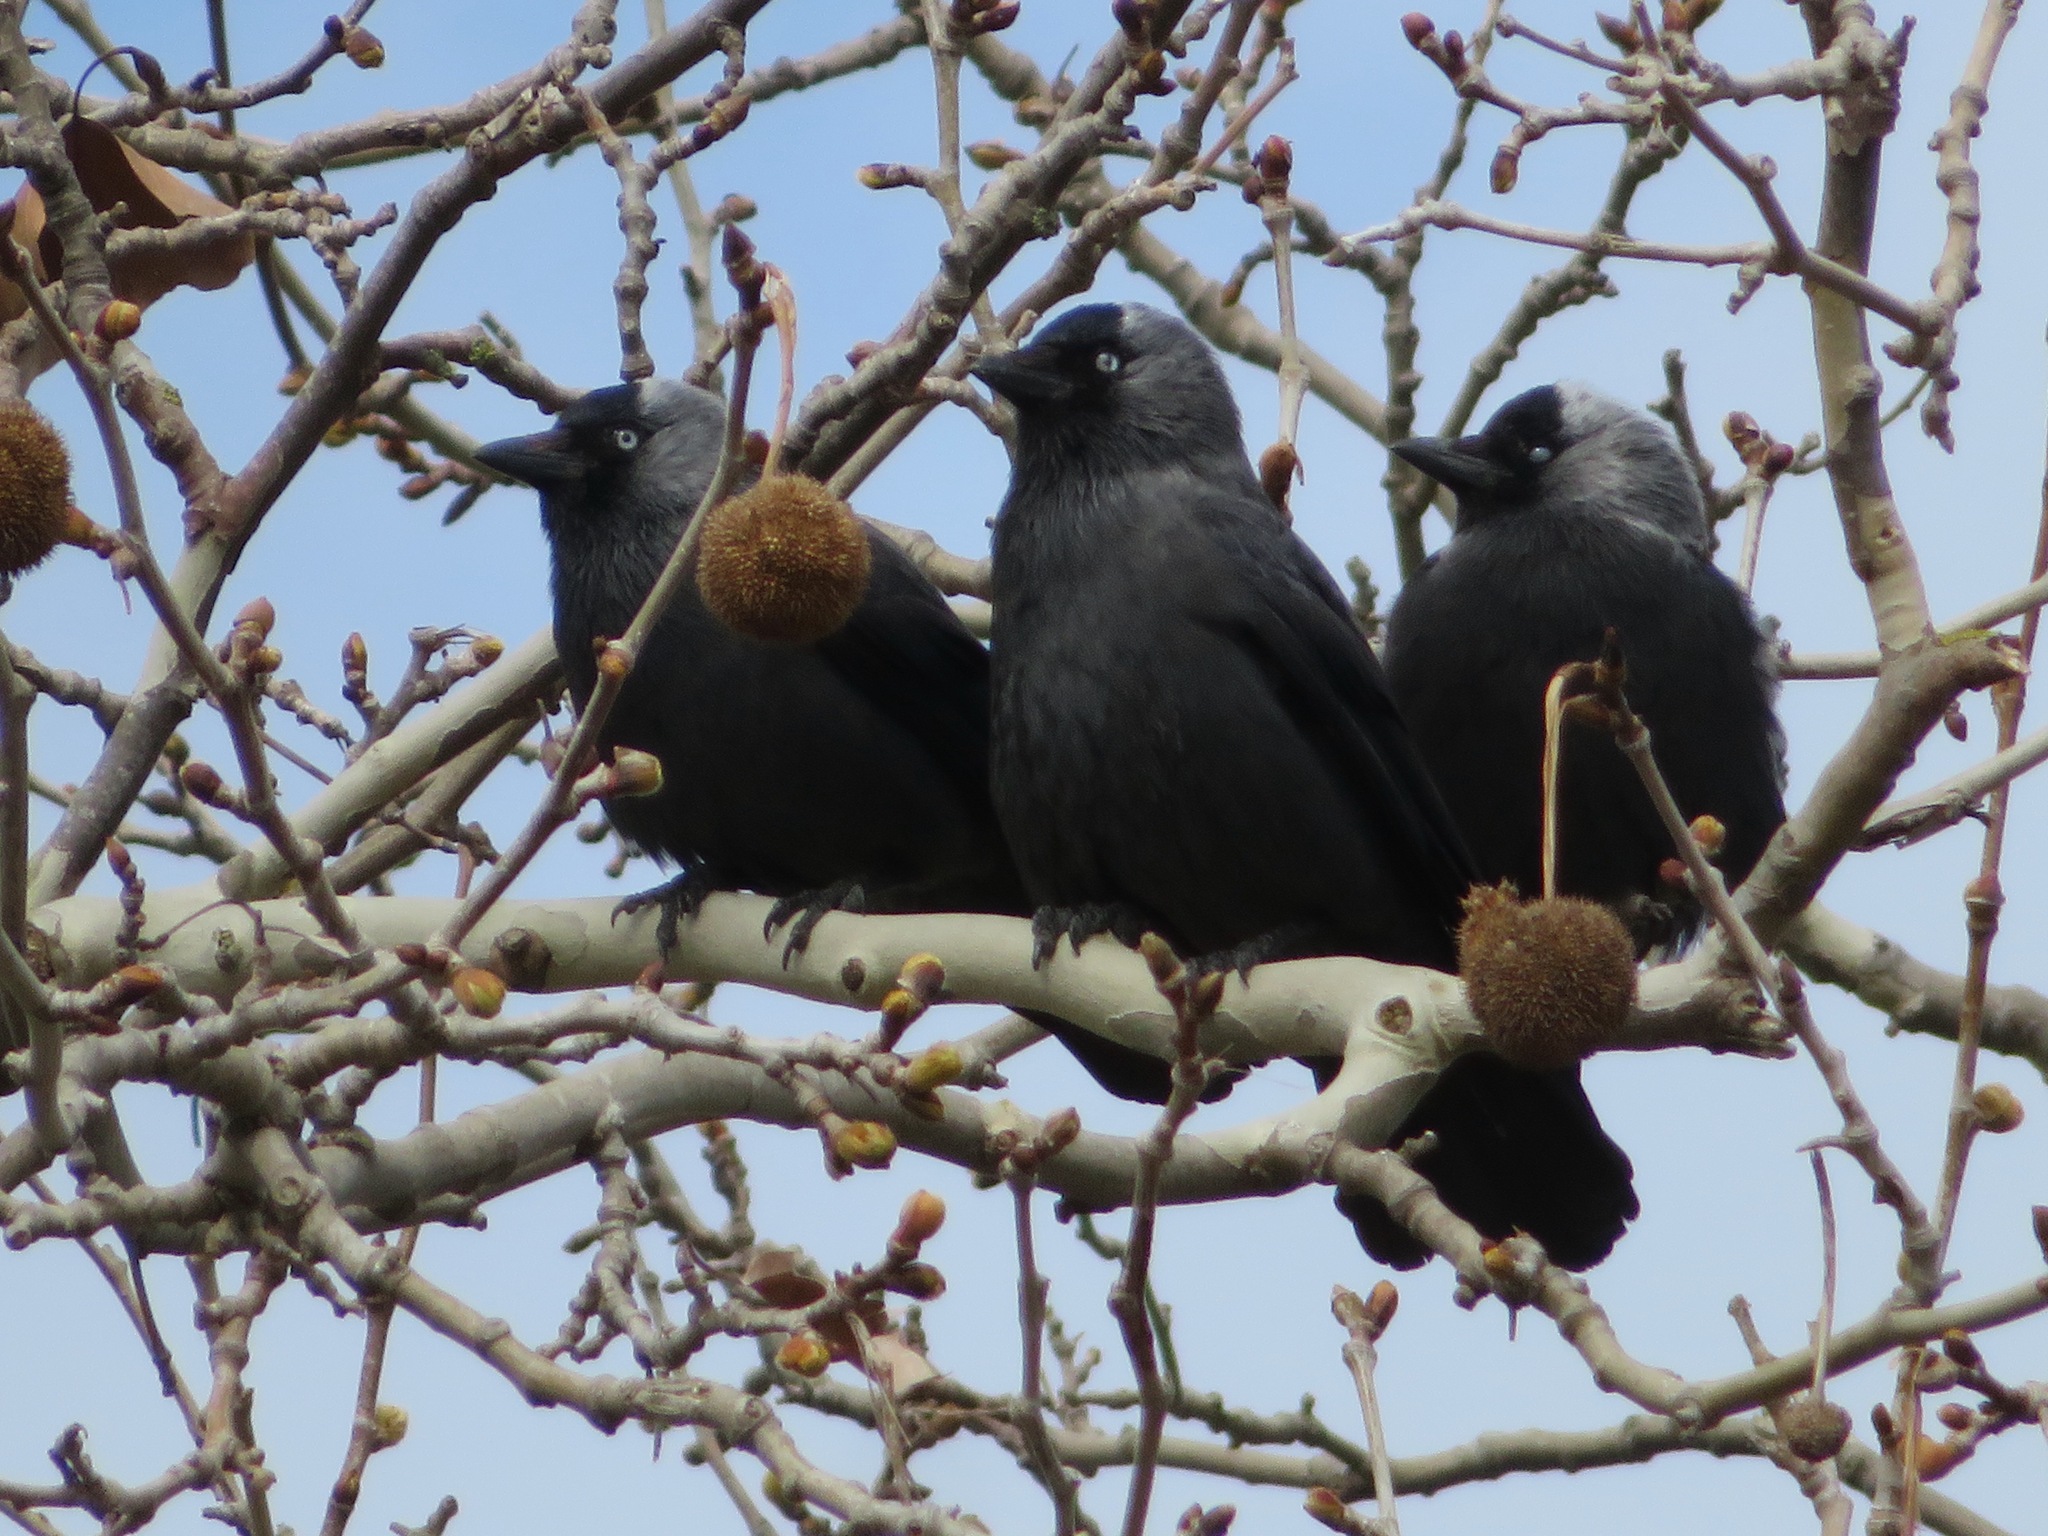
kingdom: Animalia
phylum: Chordata
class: Aves
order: Passeriformes
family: Corvidae
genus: Coloeus
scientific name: Coloeus monedula
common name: Western jackdaw
